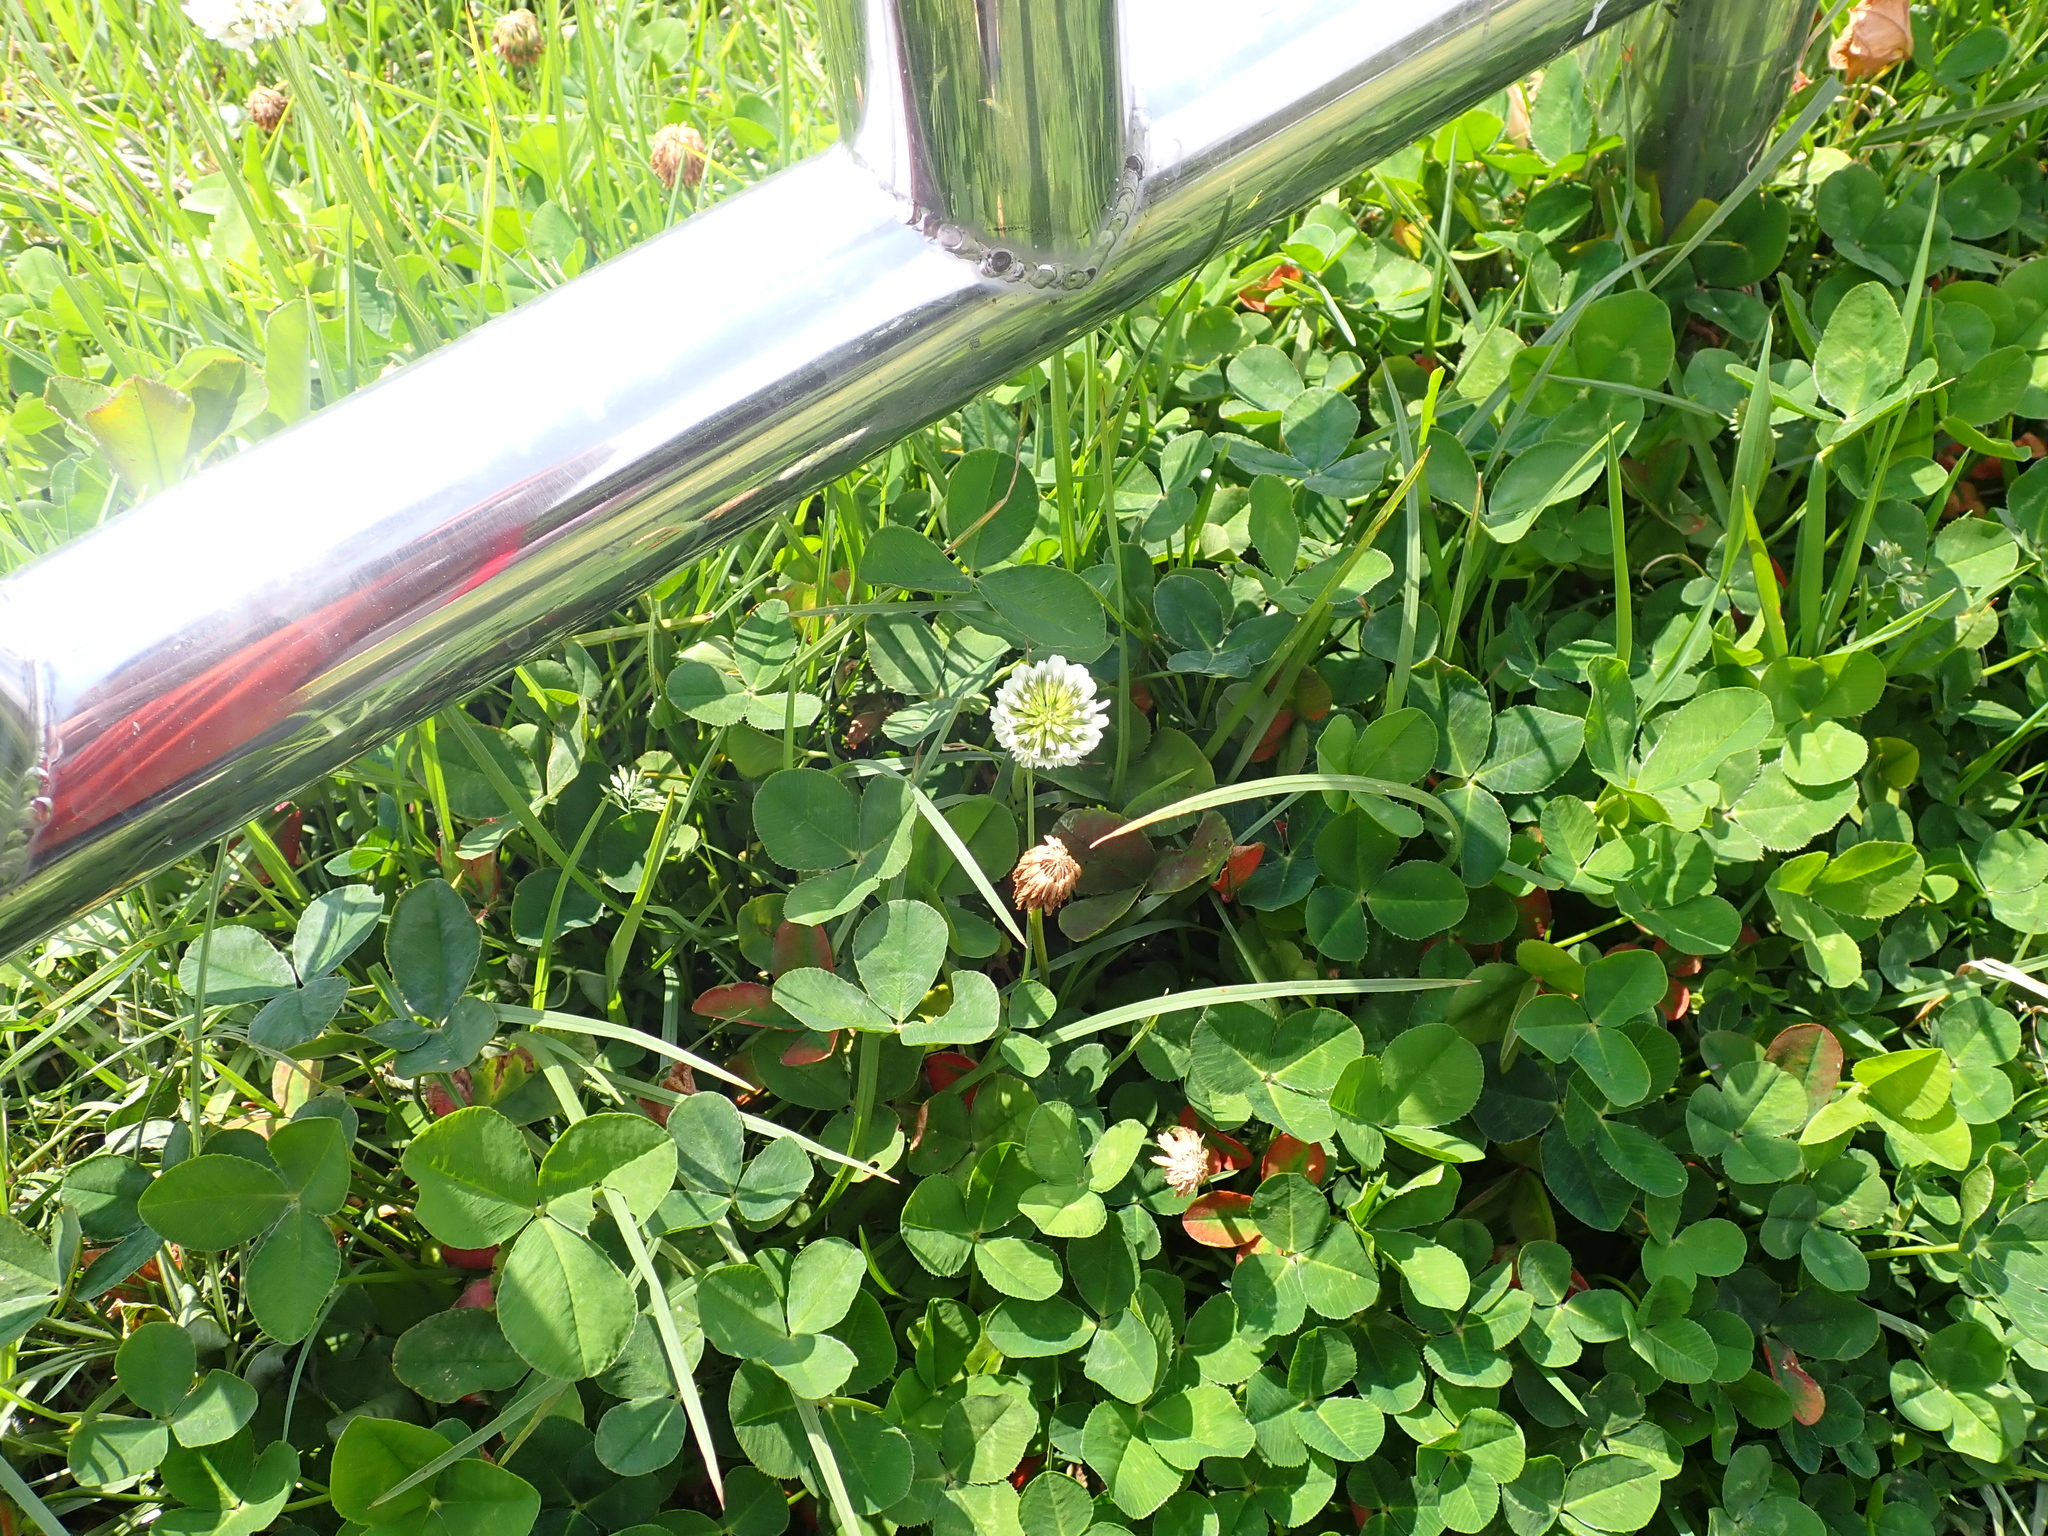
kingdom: Plantae
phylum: Tracheophyta
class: Magnoliopsida
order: Fabales
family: Fabaceae
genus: Trifolium
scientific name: Trifolium repens
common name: White clover
